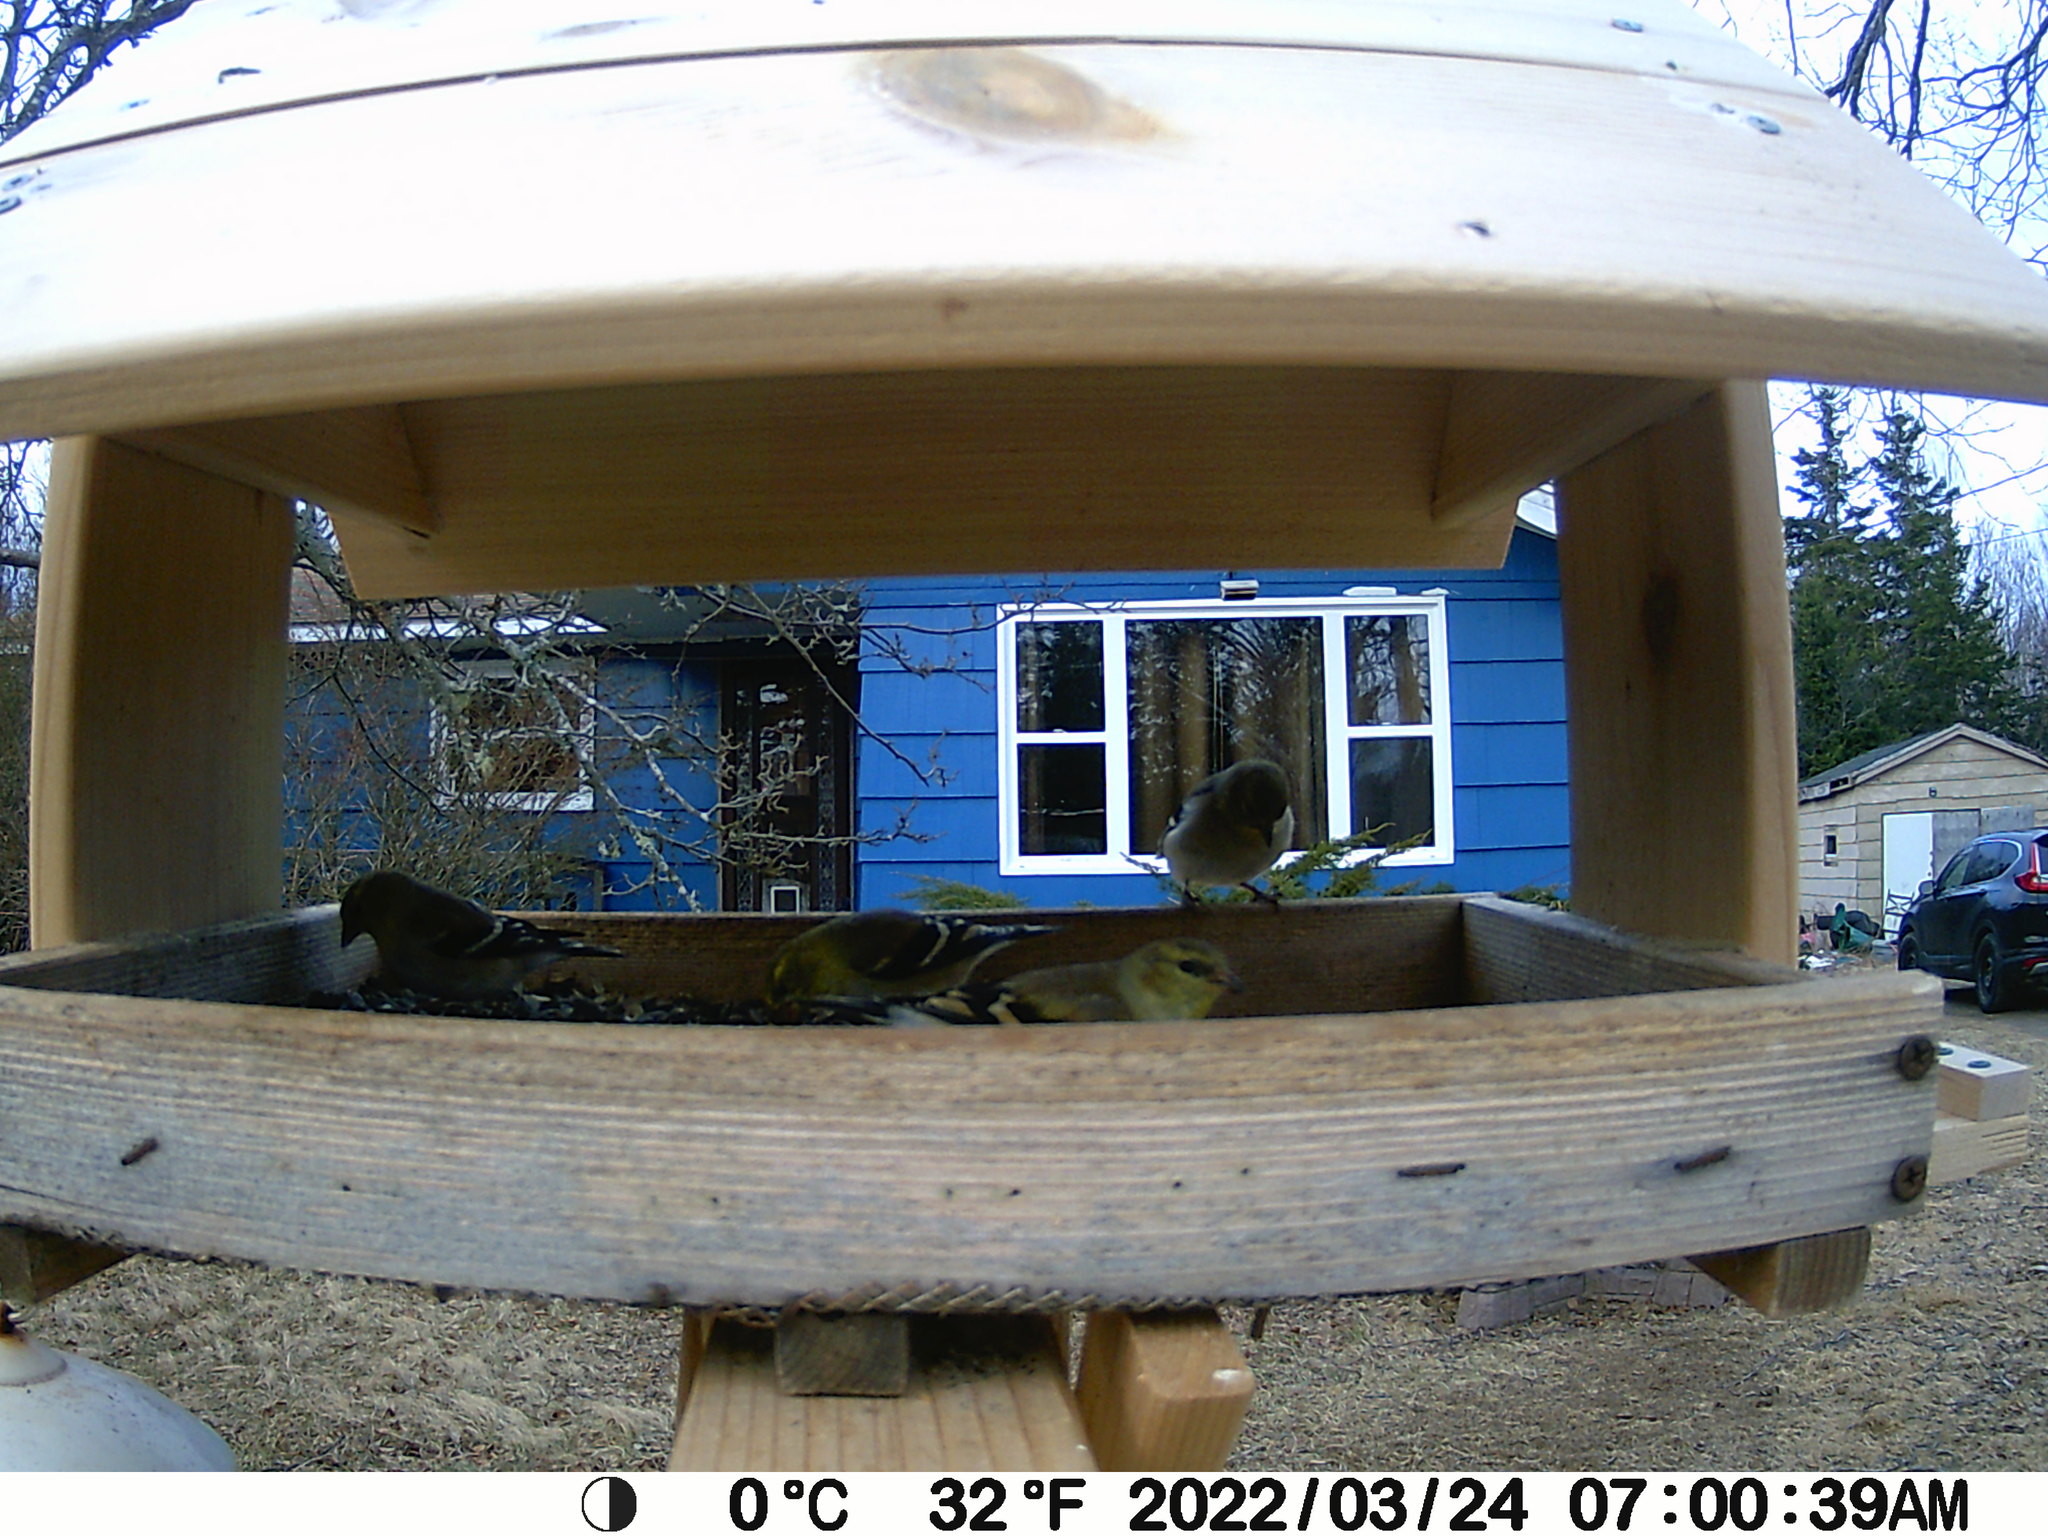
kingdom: Animalia
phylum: Chordata
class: Aves
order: Passeriformes
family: Fringillidae
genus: Spinus
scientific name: Spinus tristis
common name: American goldfinch
